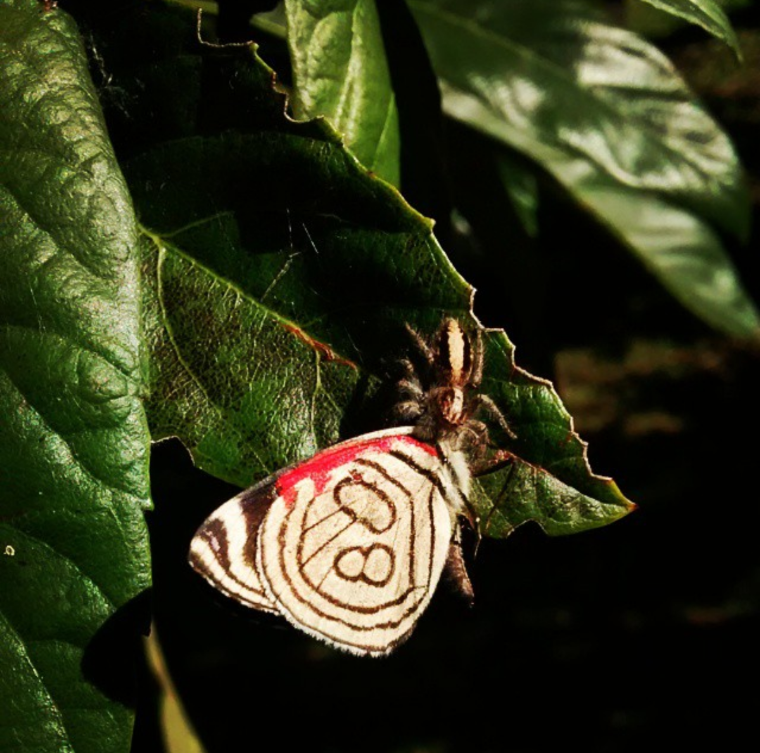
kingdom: Animalia
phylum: Arthropoda
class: Arachnida
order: Araneae
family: Salticidae
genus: Megafreya
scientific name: Megafreya sutrix
